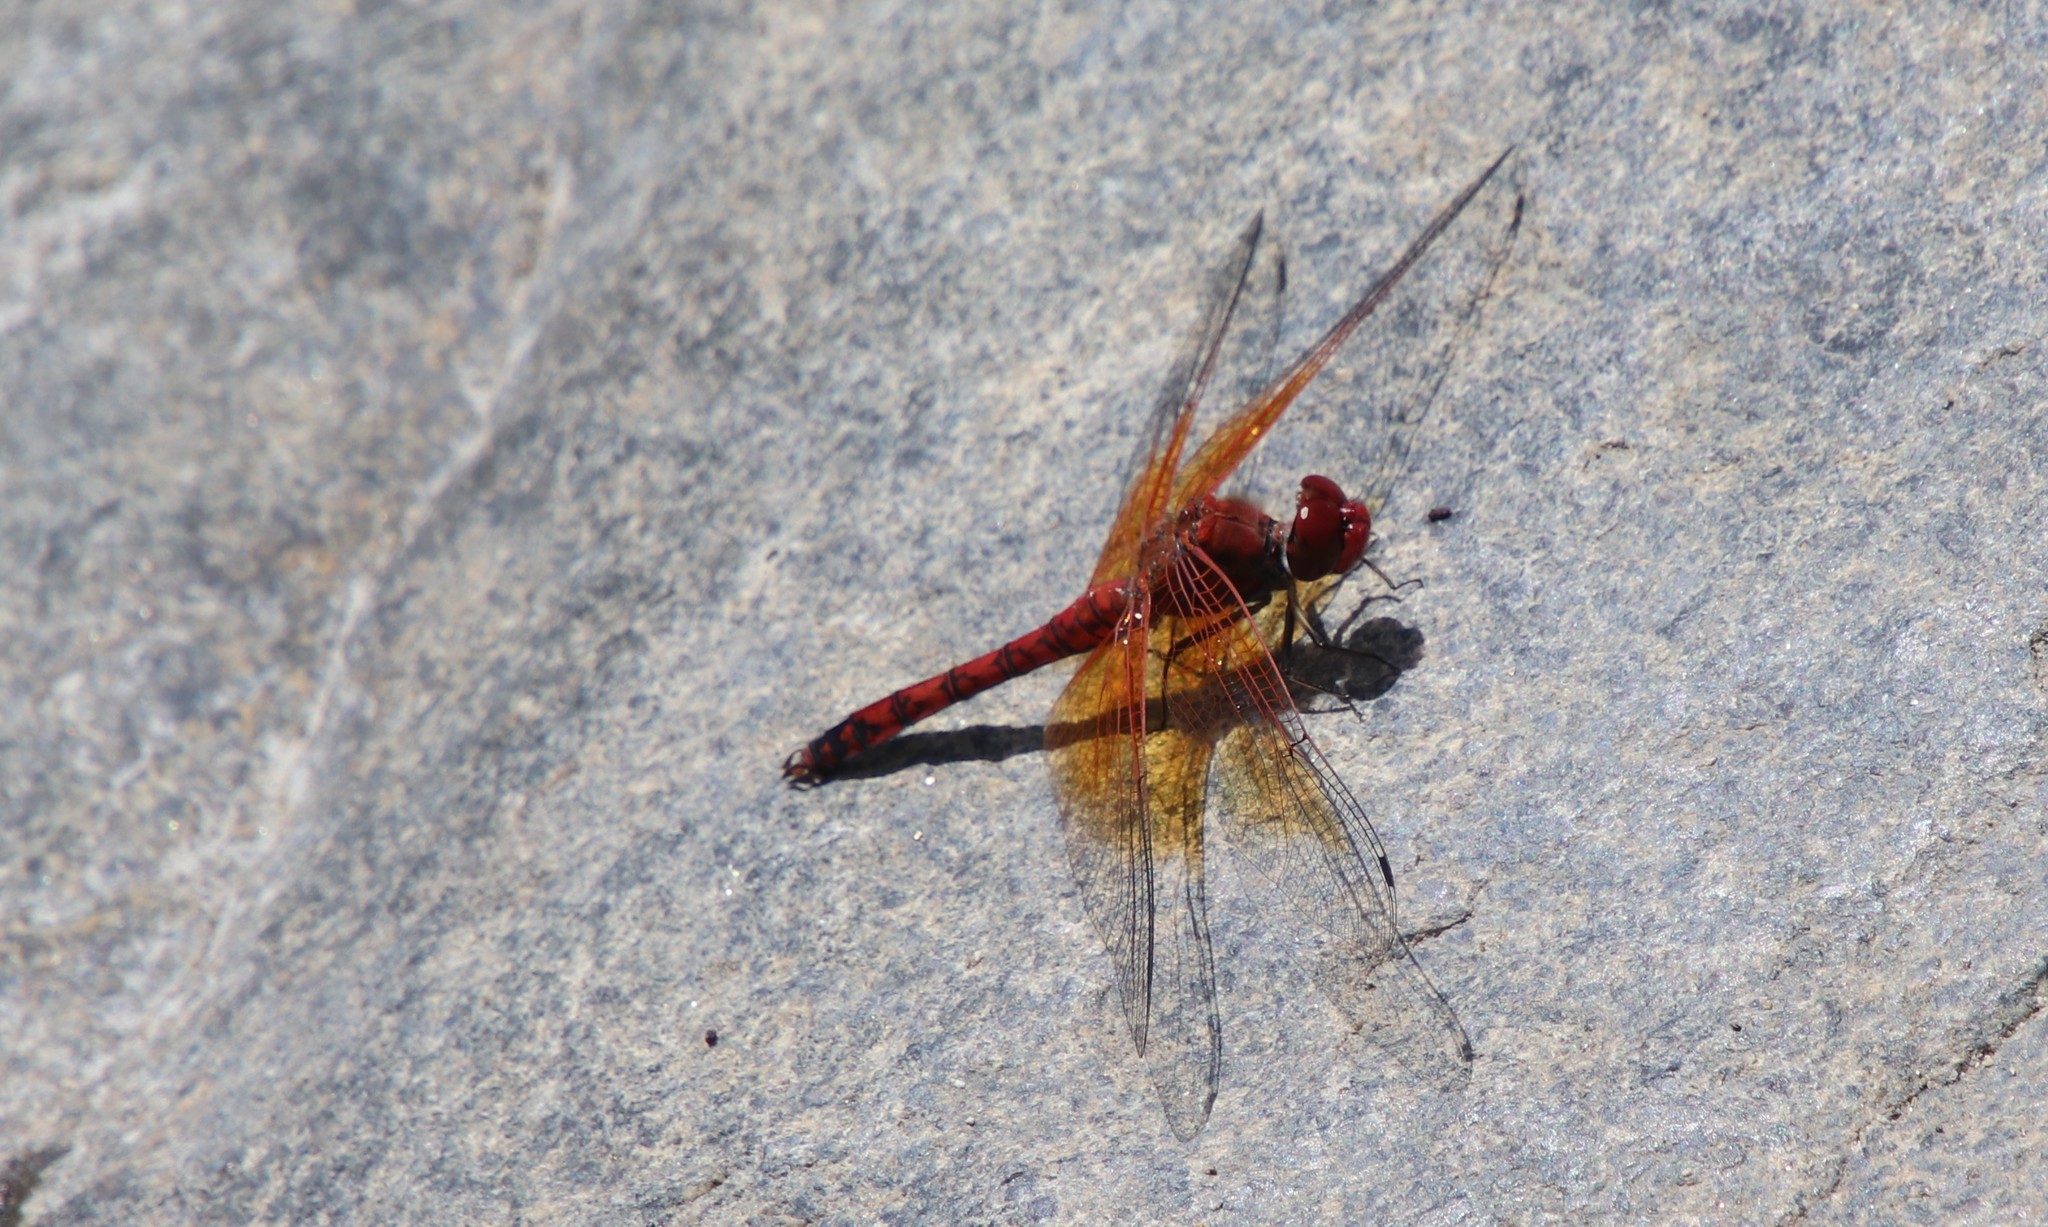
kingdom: Animalia
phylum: Arthropoda
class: Insecta
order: Odonata
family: Libellulidae
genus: Paltothemis
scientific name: Paltothemis lineatipes
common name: Red rock skimmer
